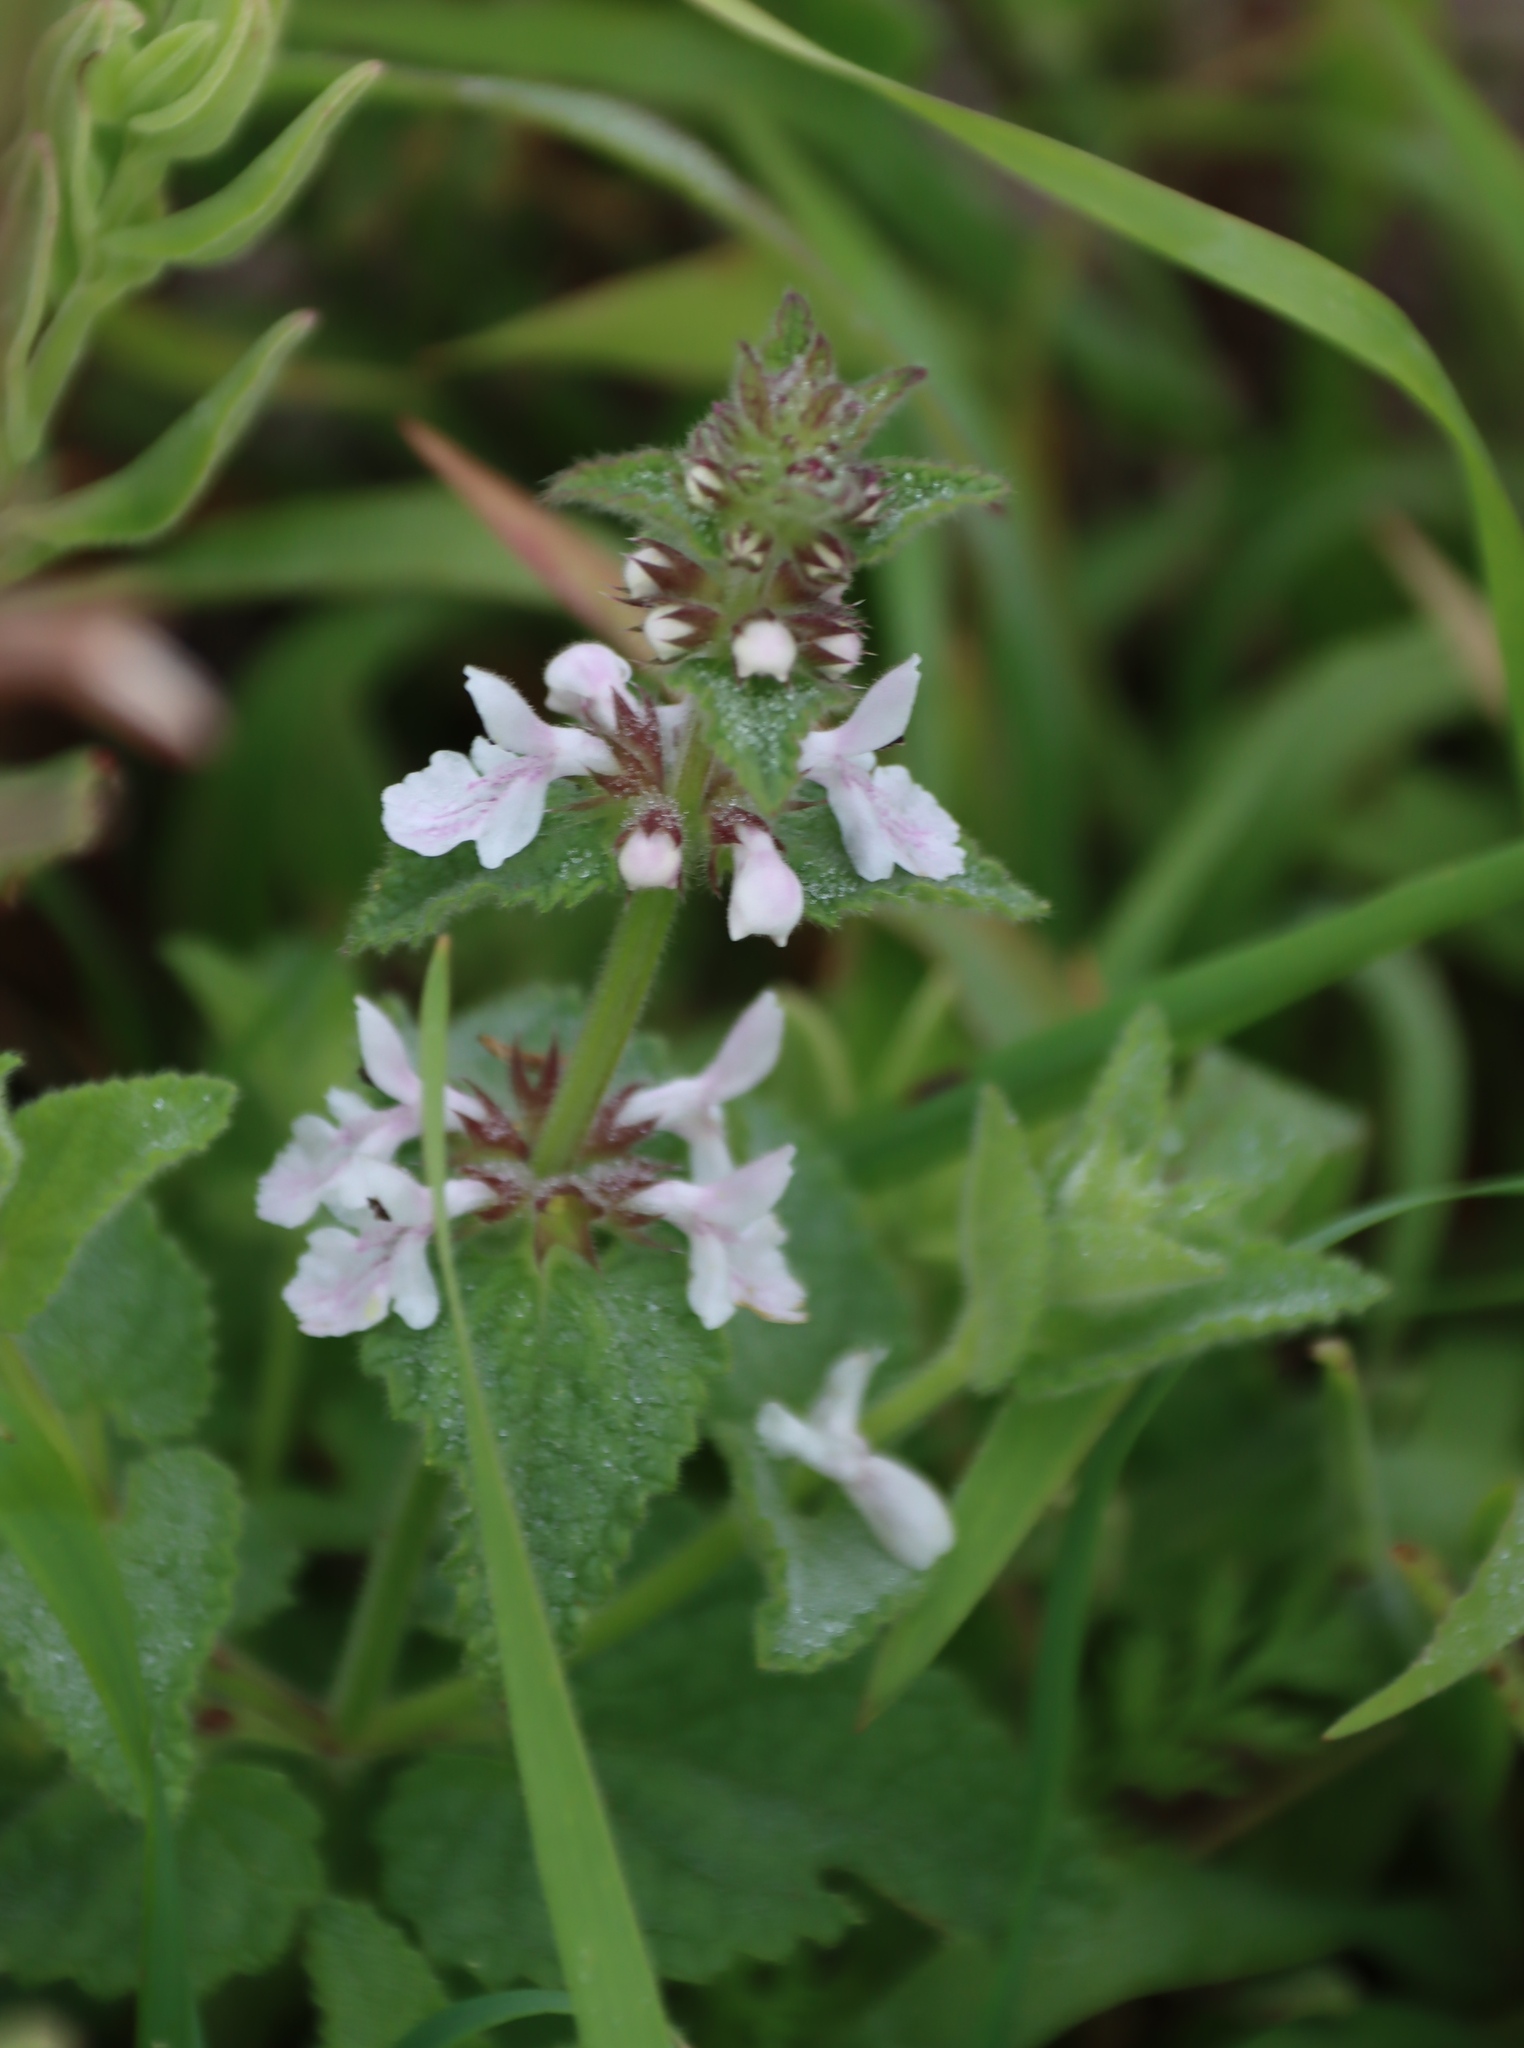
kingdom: Plantae
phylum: Tracheophyta
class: Magnoliopsida
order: Lamiales
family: Lamiaceae
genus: Stachys
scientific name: Stachys bolusii
